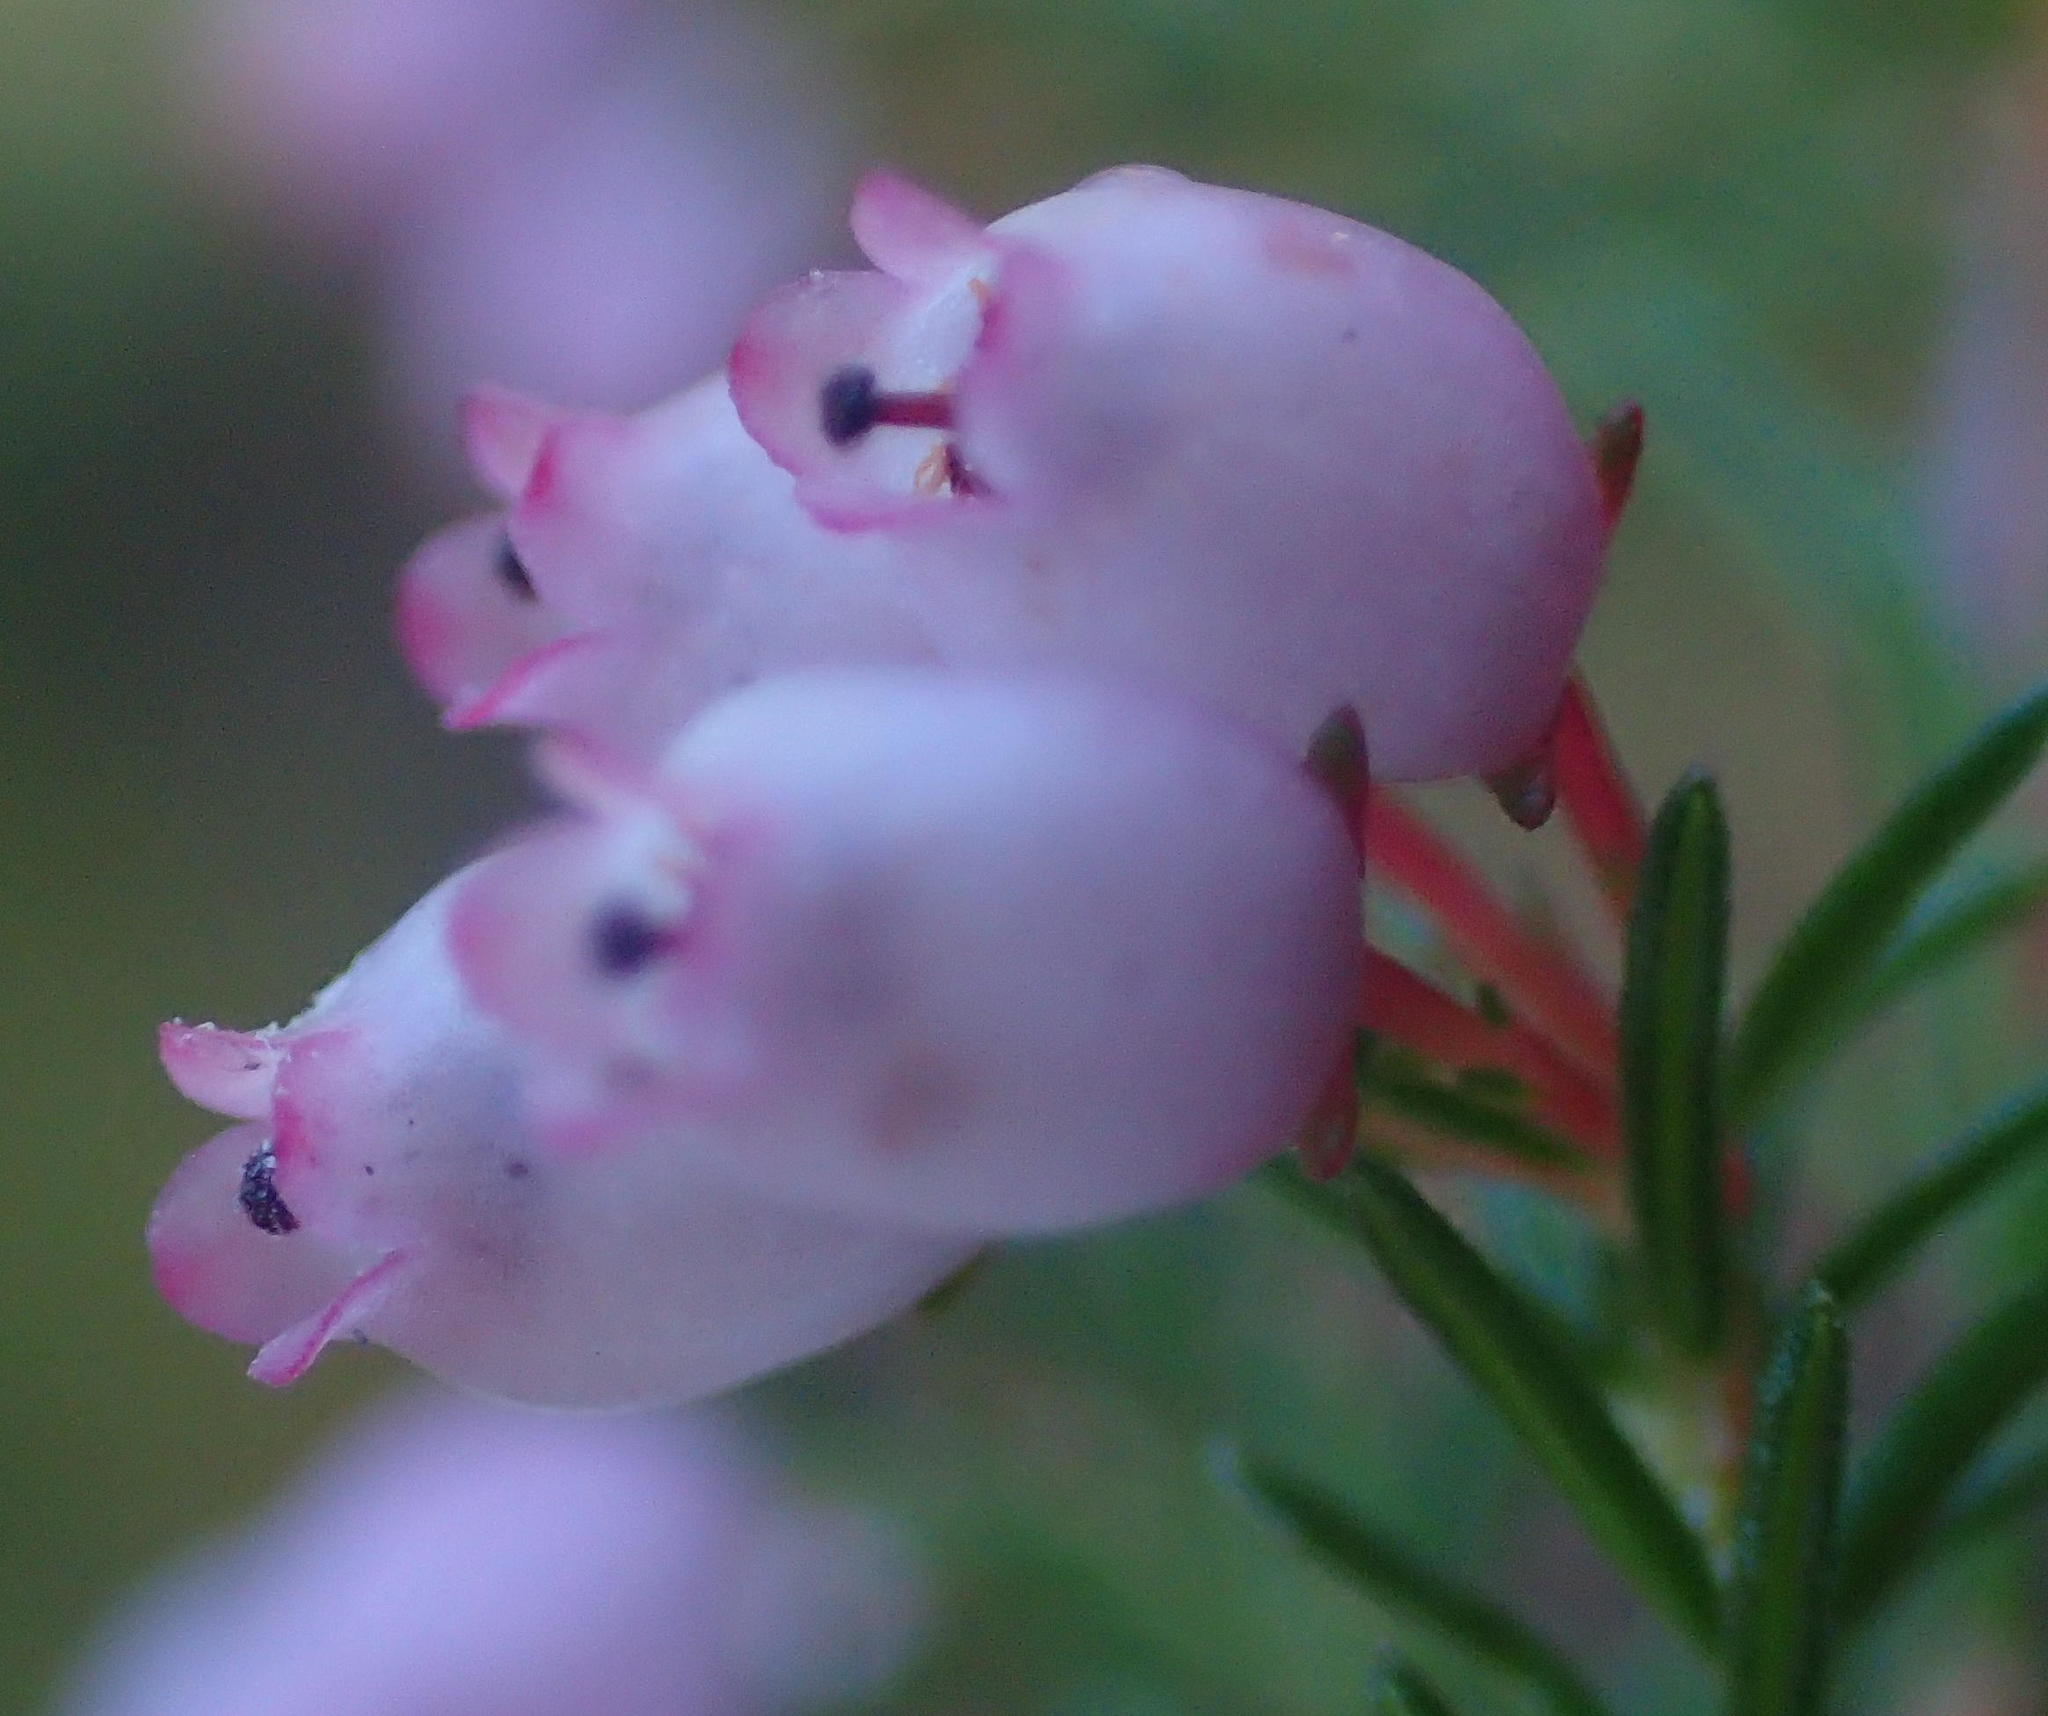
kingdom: Plantae
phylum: Tracheophyta
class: Magnoliopsida
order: Ericales
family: Ericaceae
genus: Erica
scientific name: Erica gracilis
